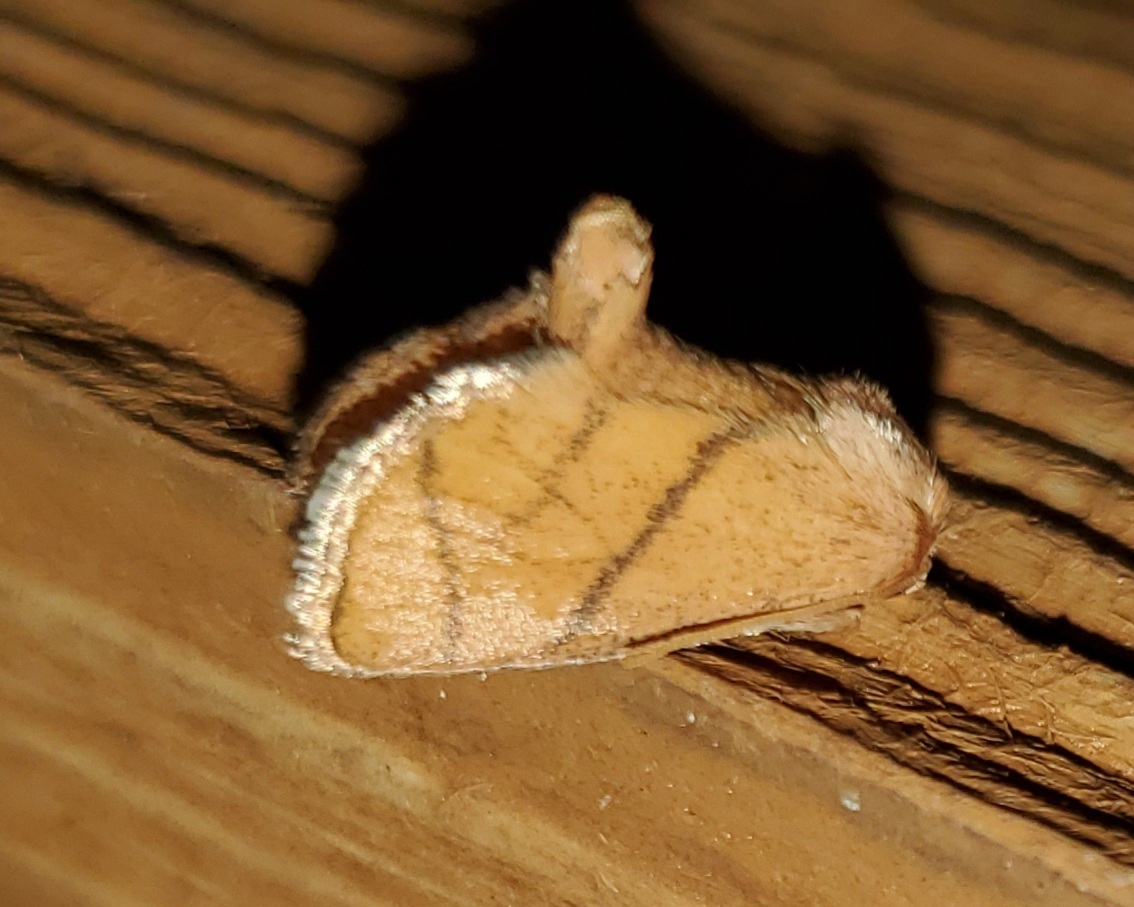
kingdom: Animalia
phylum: Arthropoda
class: Insecta
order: Lepidoptera
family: Limacodidae
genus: Apoda
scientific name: Apoda y-inversa
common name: Yellow-collared slug moth
